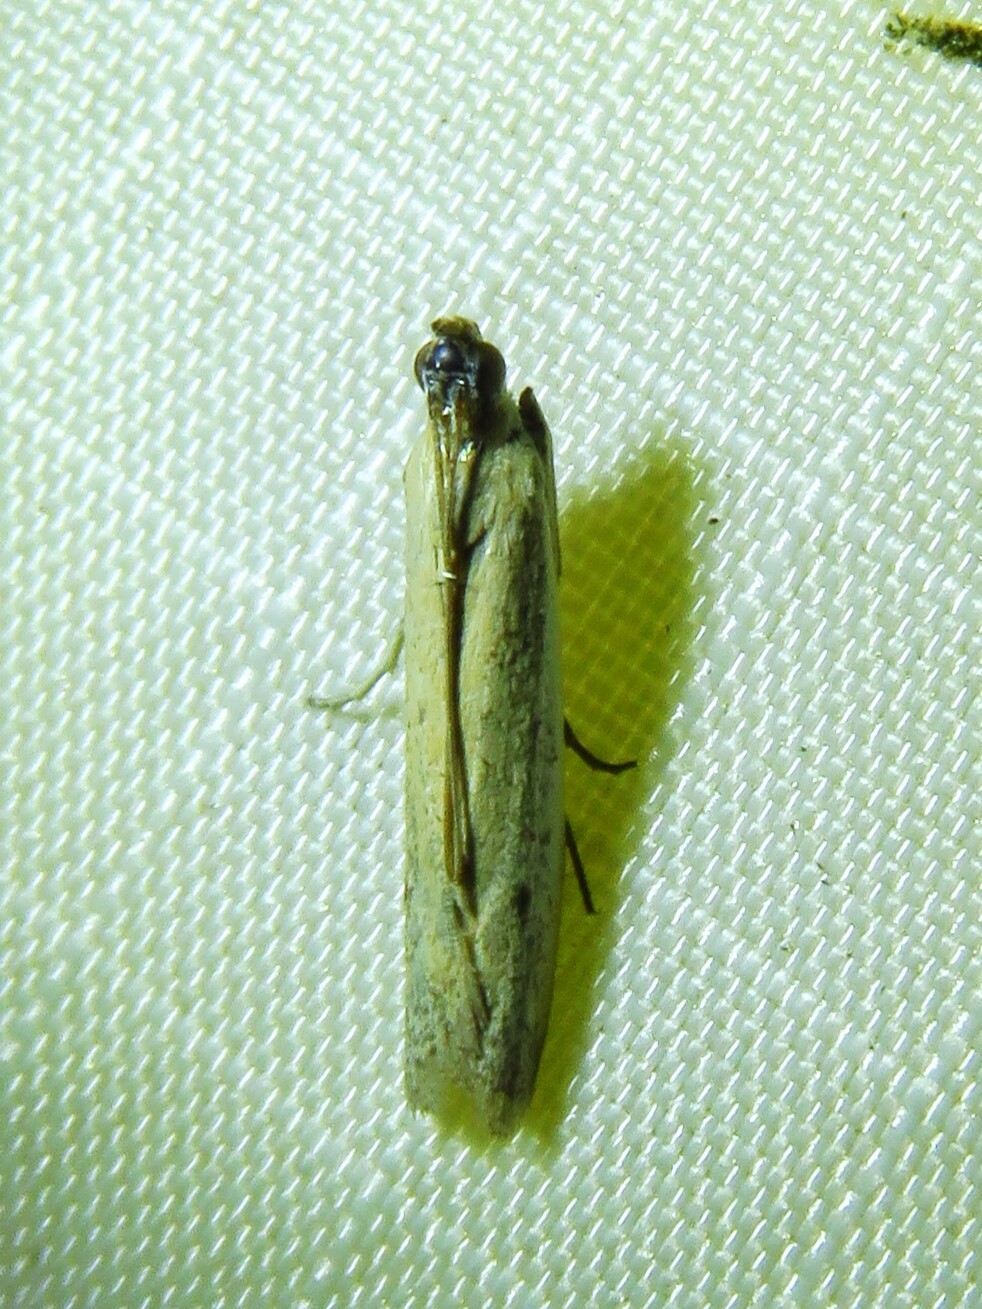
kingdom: Animalia
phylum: Arthropoda
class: Insecta
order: Lepidoptera
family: Pyralidae
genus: Elasmopalpus
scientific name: Elasmopalpus lignosella
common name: Lesser cornstalk borer
